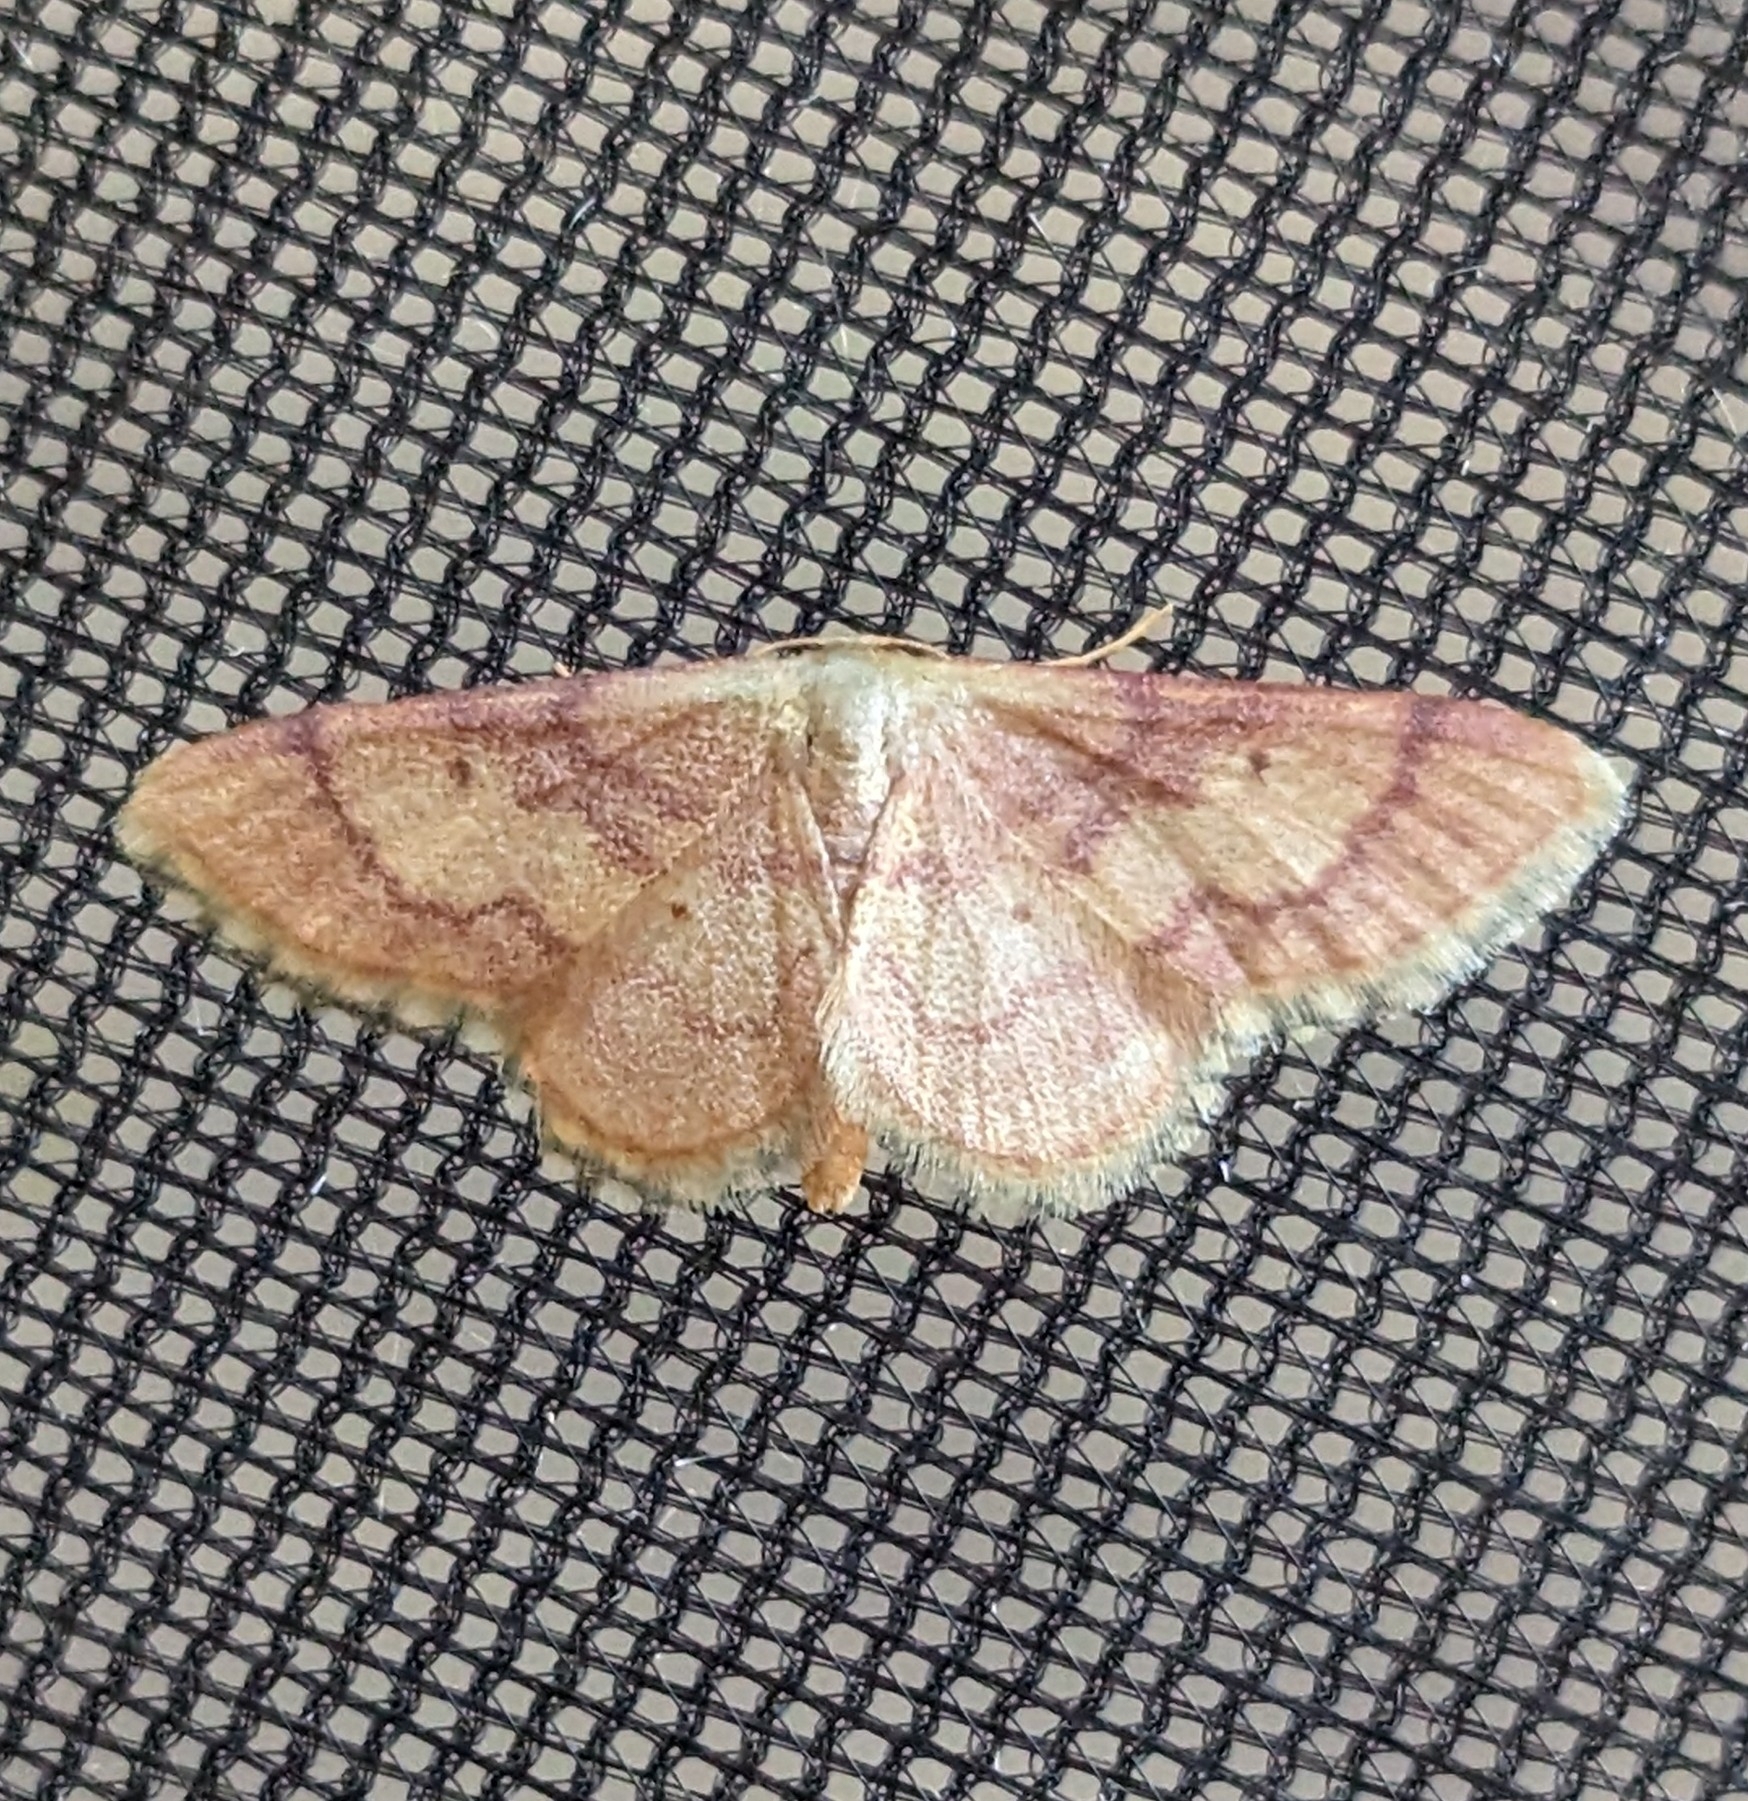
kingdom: Animalia
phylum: Arthropoda
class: Insecta
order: Lepidoptera
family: Geometridae
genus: Idaea
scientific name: Idaea demissaria
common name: Red-bordered wave
